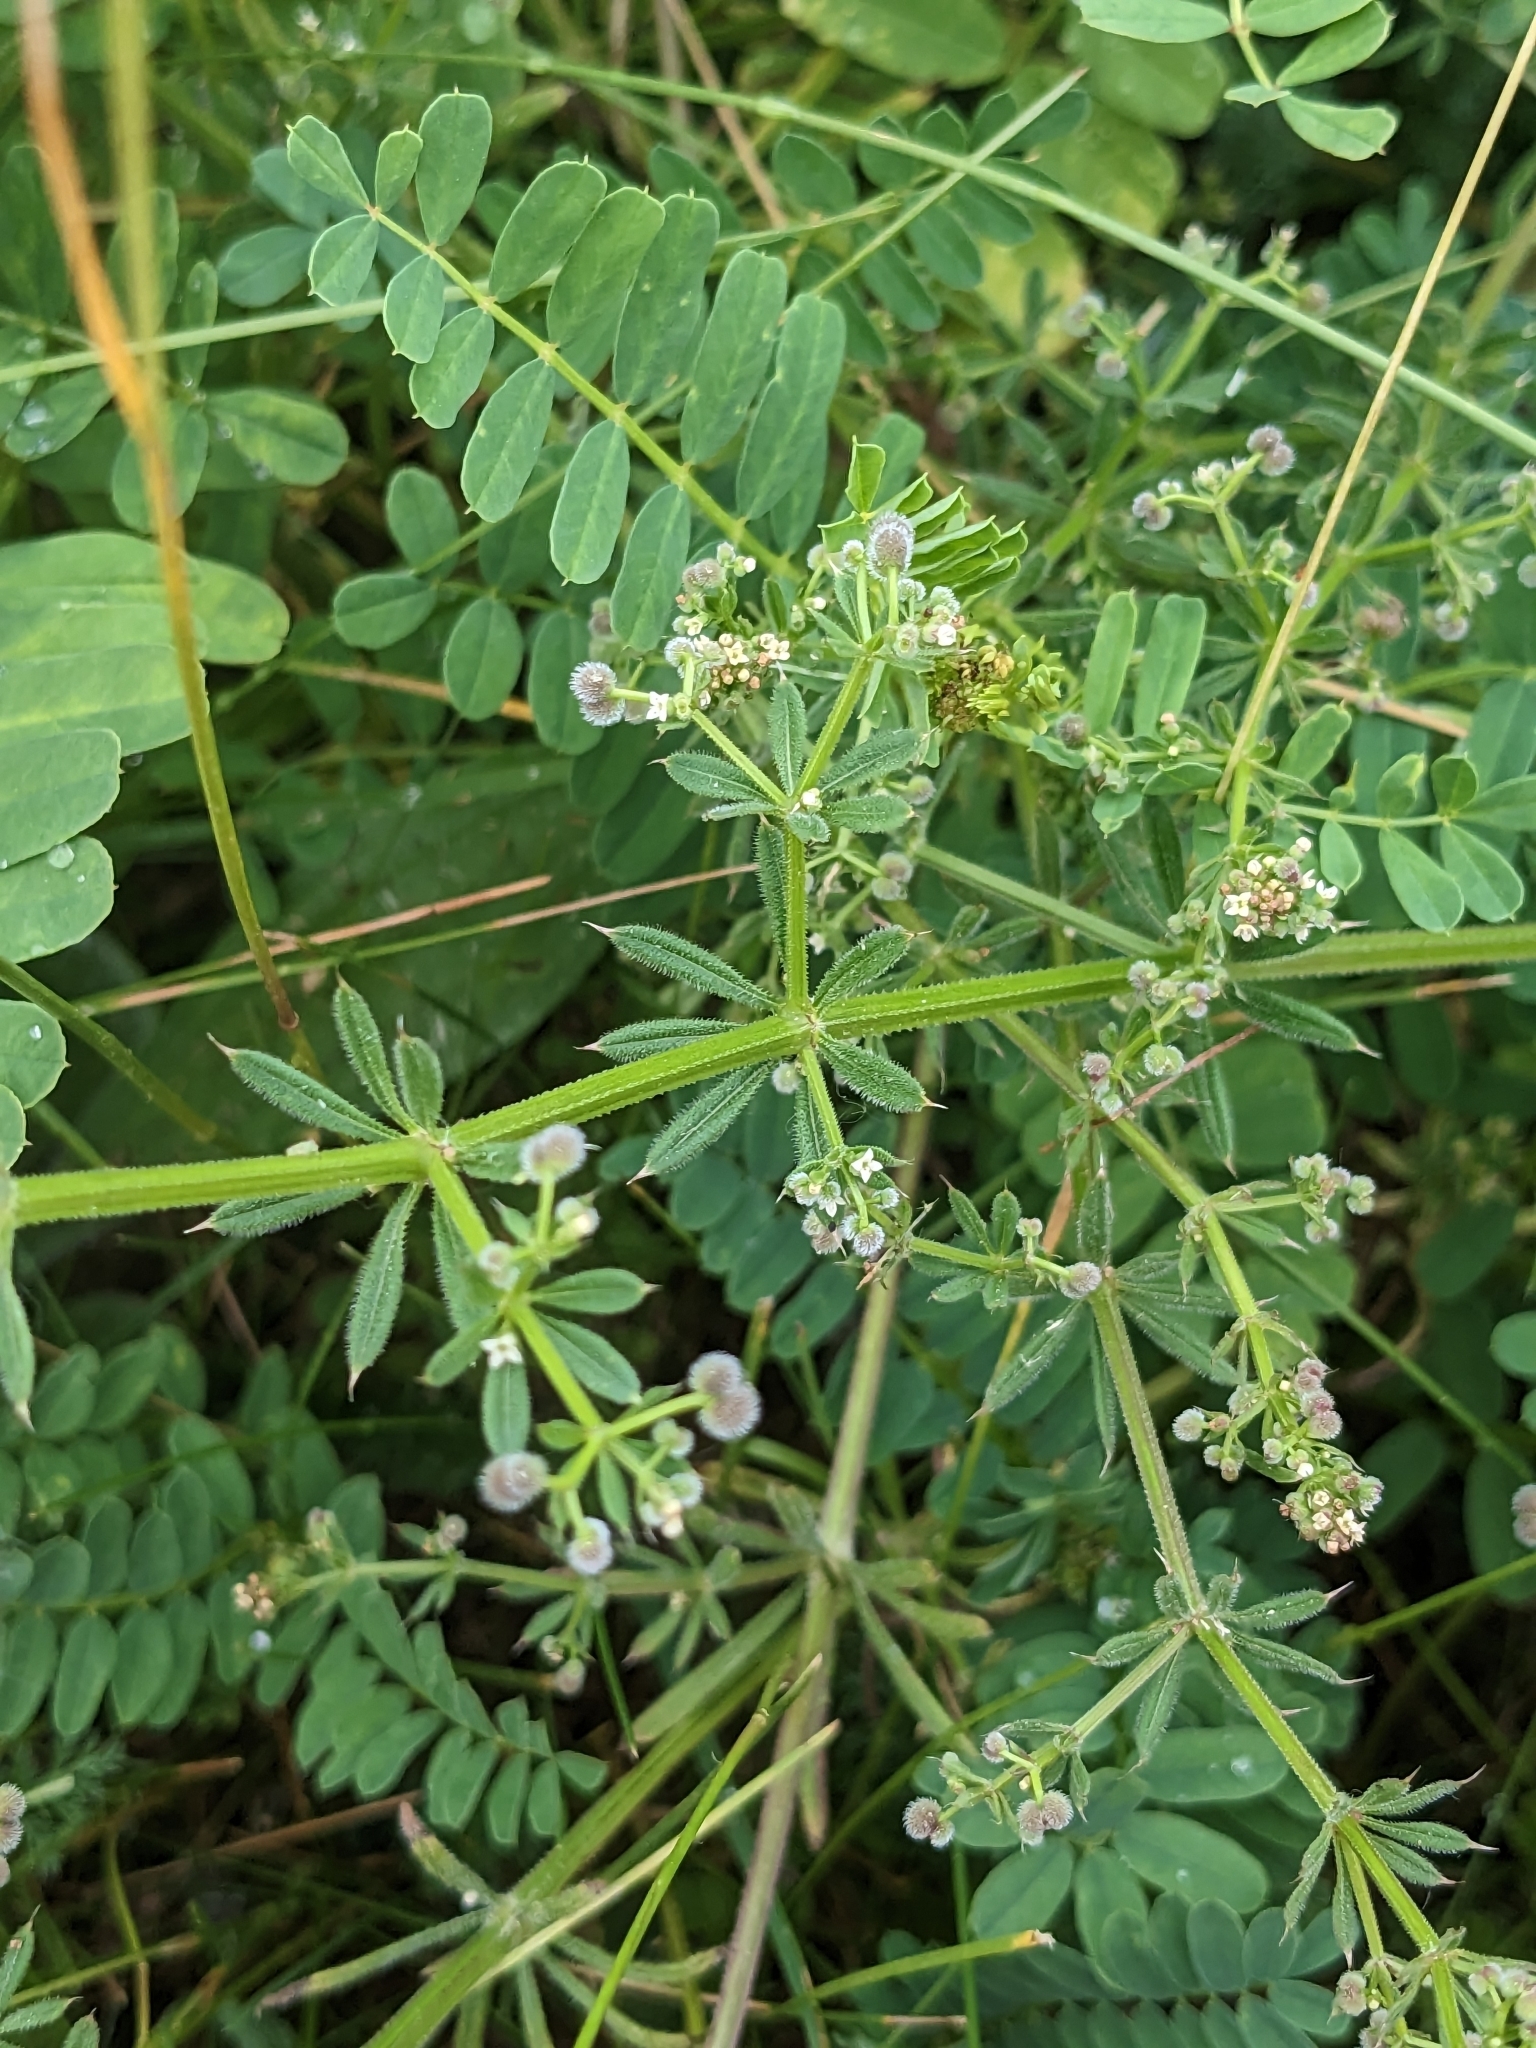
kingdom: Plantae
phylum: Tracheophyta
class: Magnoliopsida
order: Gentianales
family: Rubiaceae
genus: Galium
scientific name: Galium aparine
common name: Cleavers
